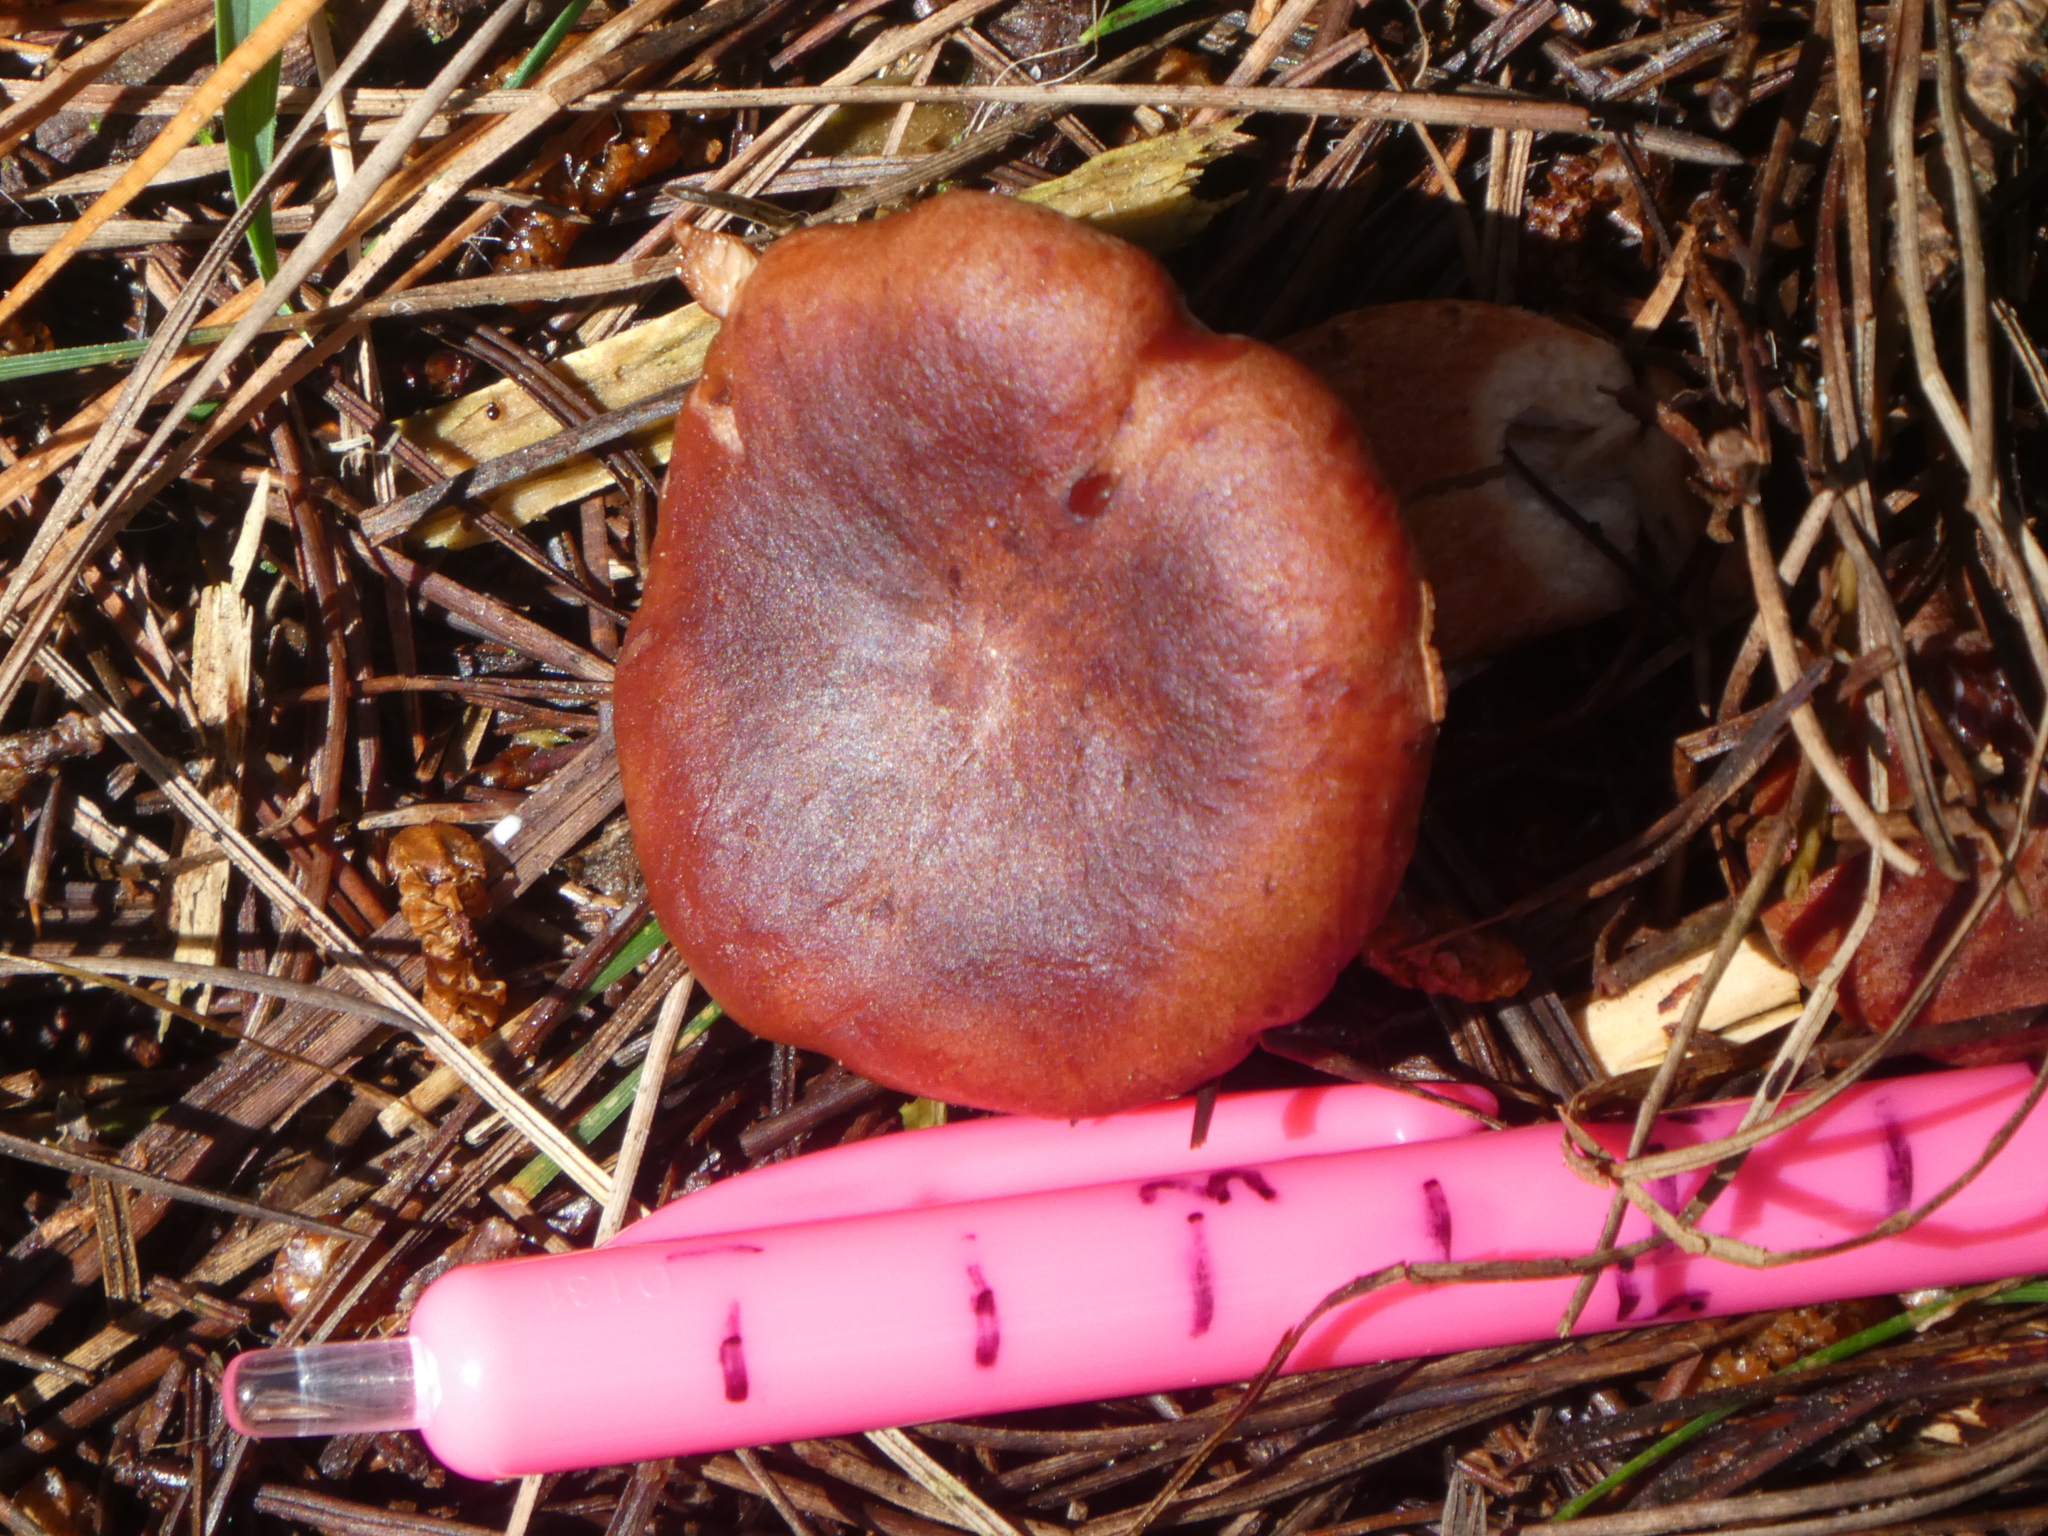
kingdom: Fungi
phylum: Basidiomycota
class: Agaricomycetes
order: Russulales
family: Russulaceae
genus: Lactarius
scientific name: Lactarius rufus
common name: Rufous milk-cap
